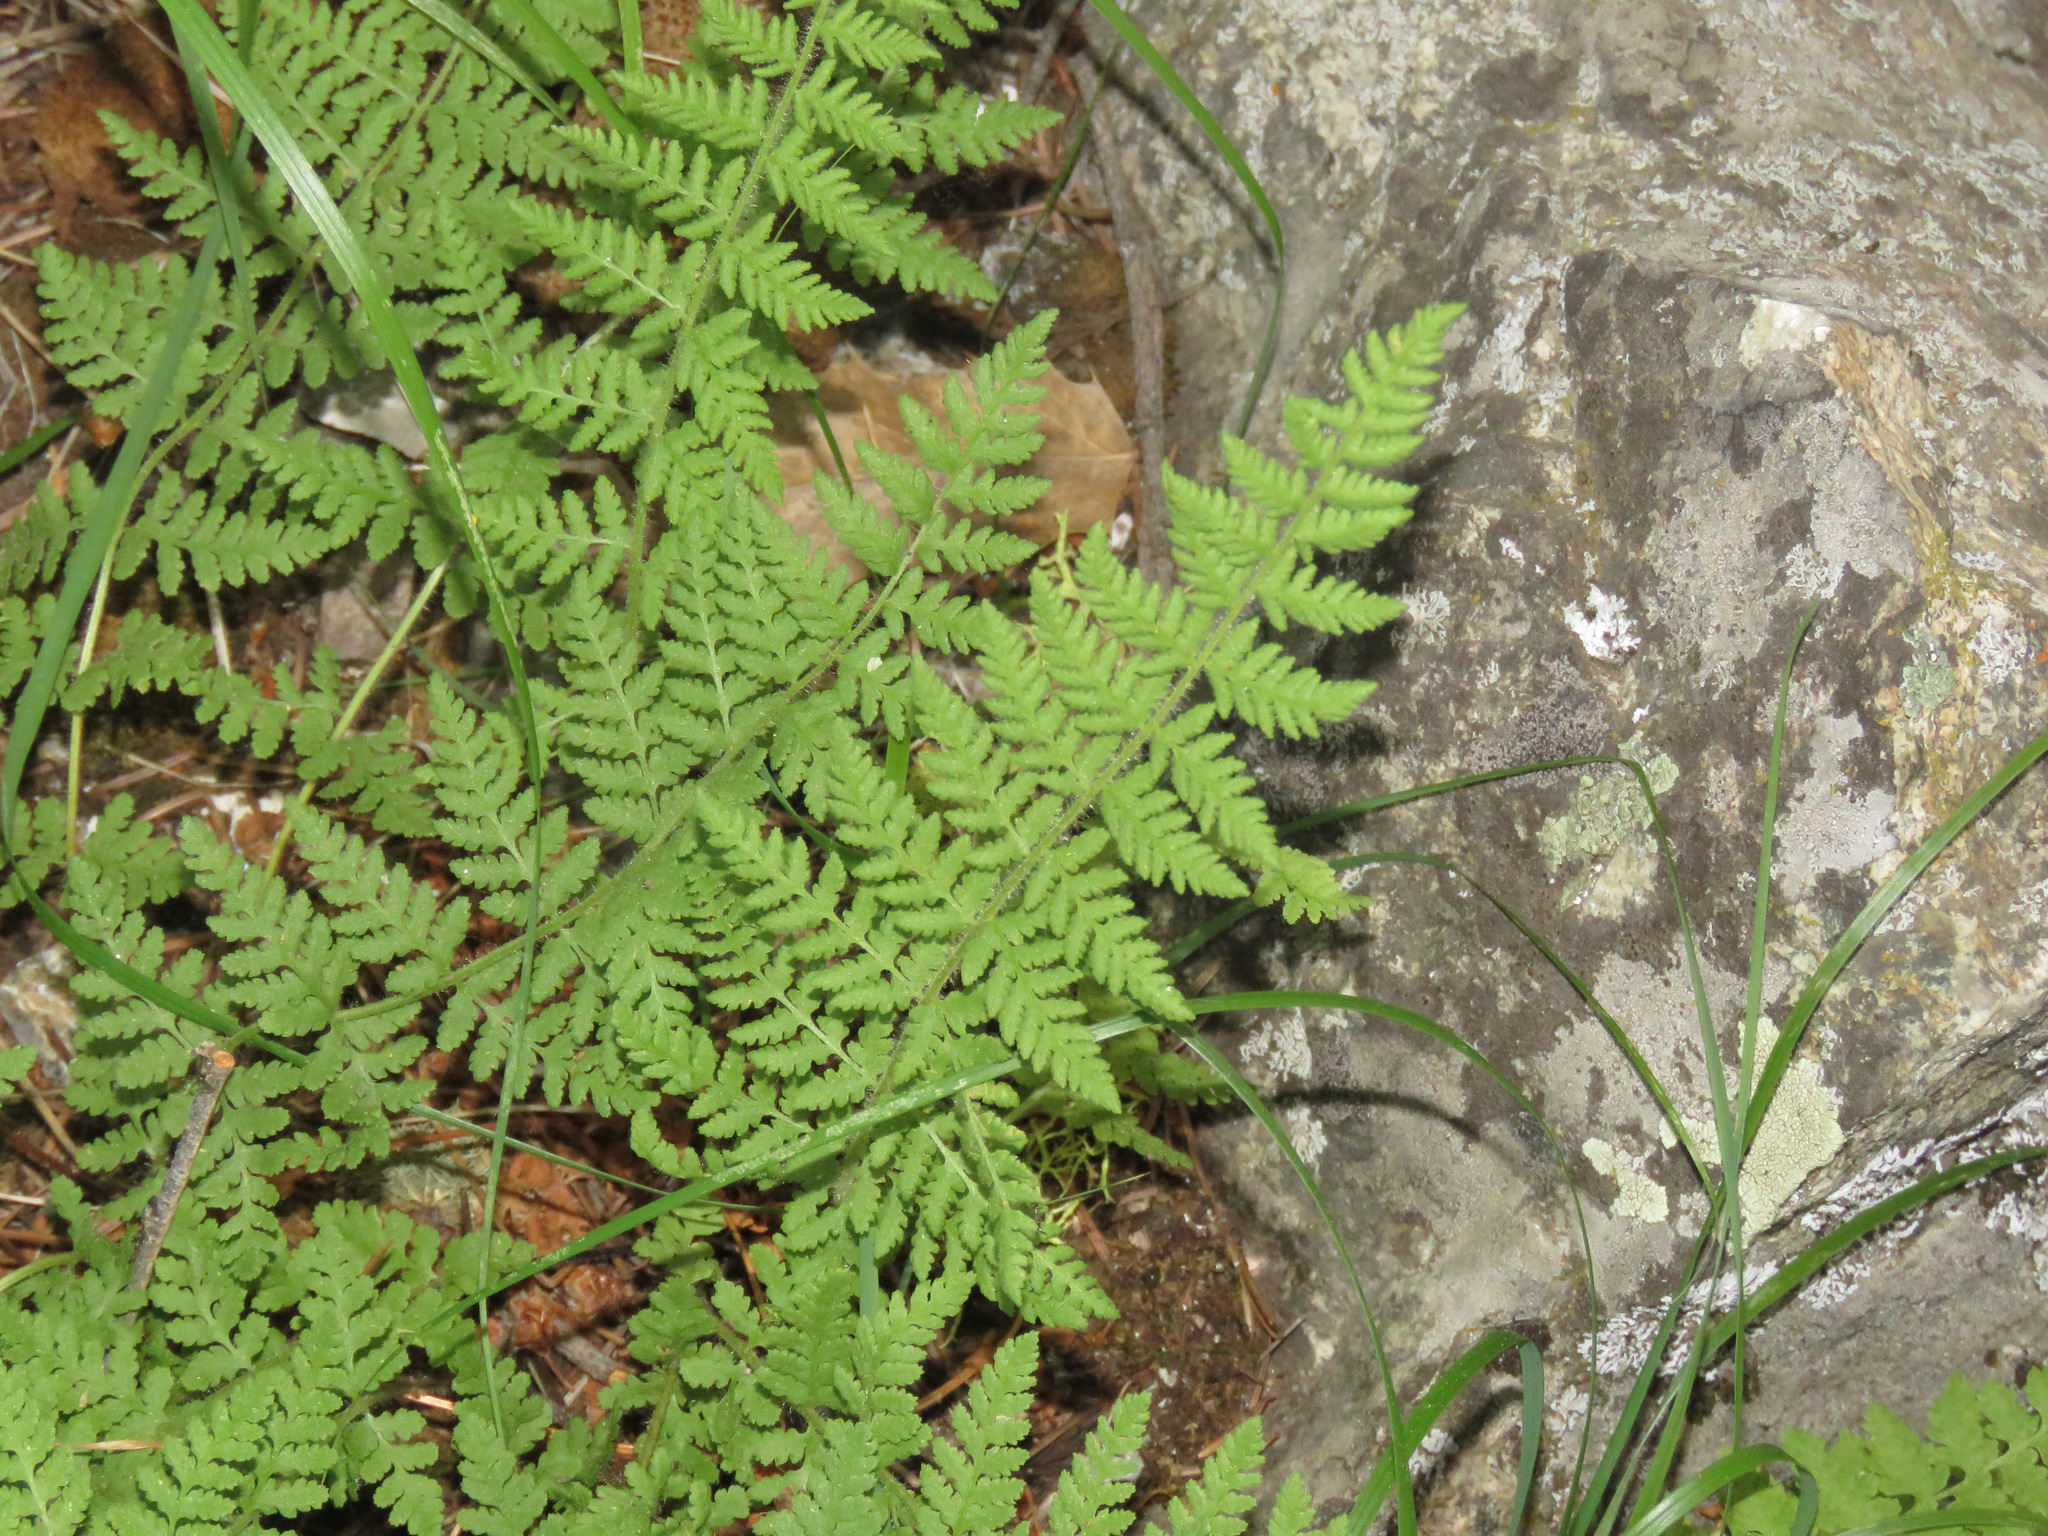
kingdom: Plantae
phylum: Tracheophyta
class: Polypodiopsida
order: Polypodiales
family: Woodsiaceae
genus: Physematium
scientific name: Physematium scopulinum
